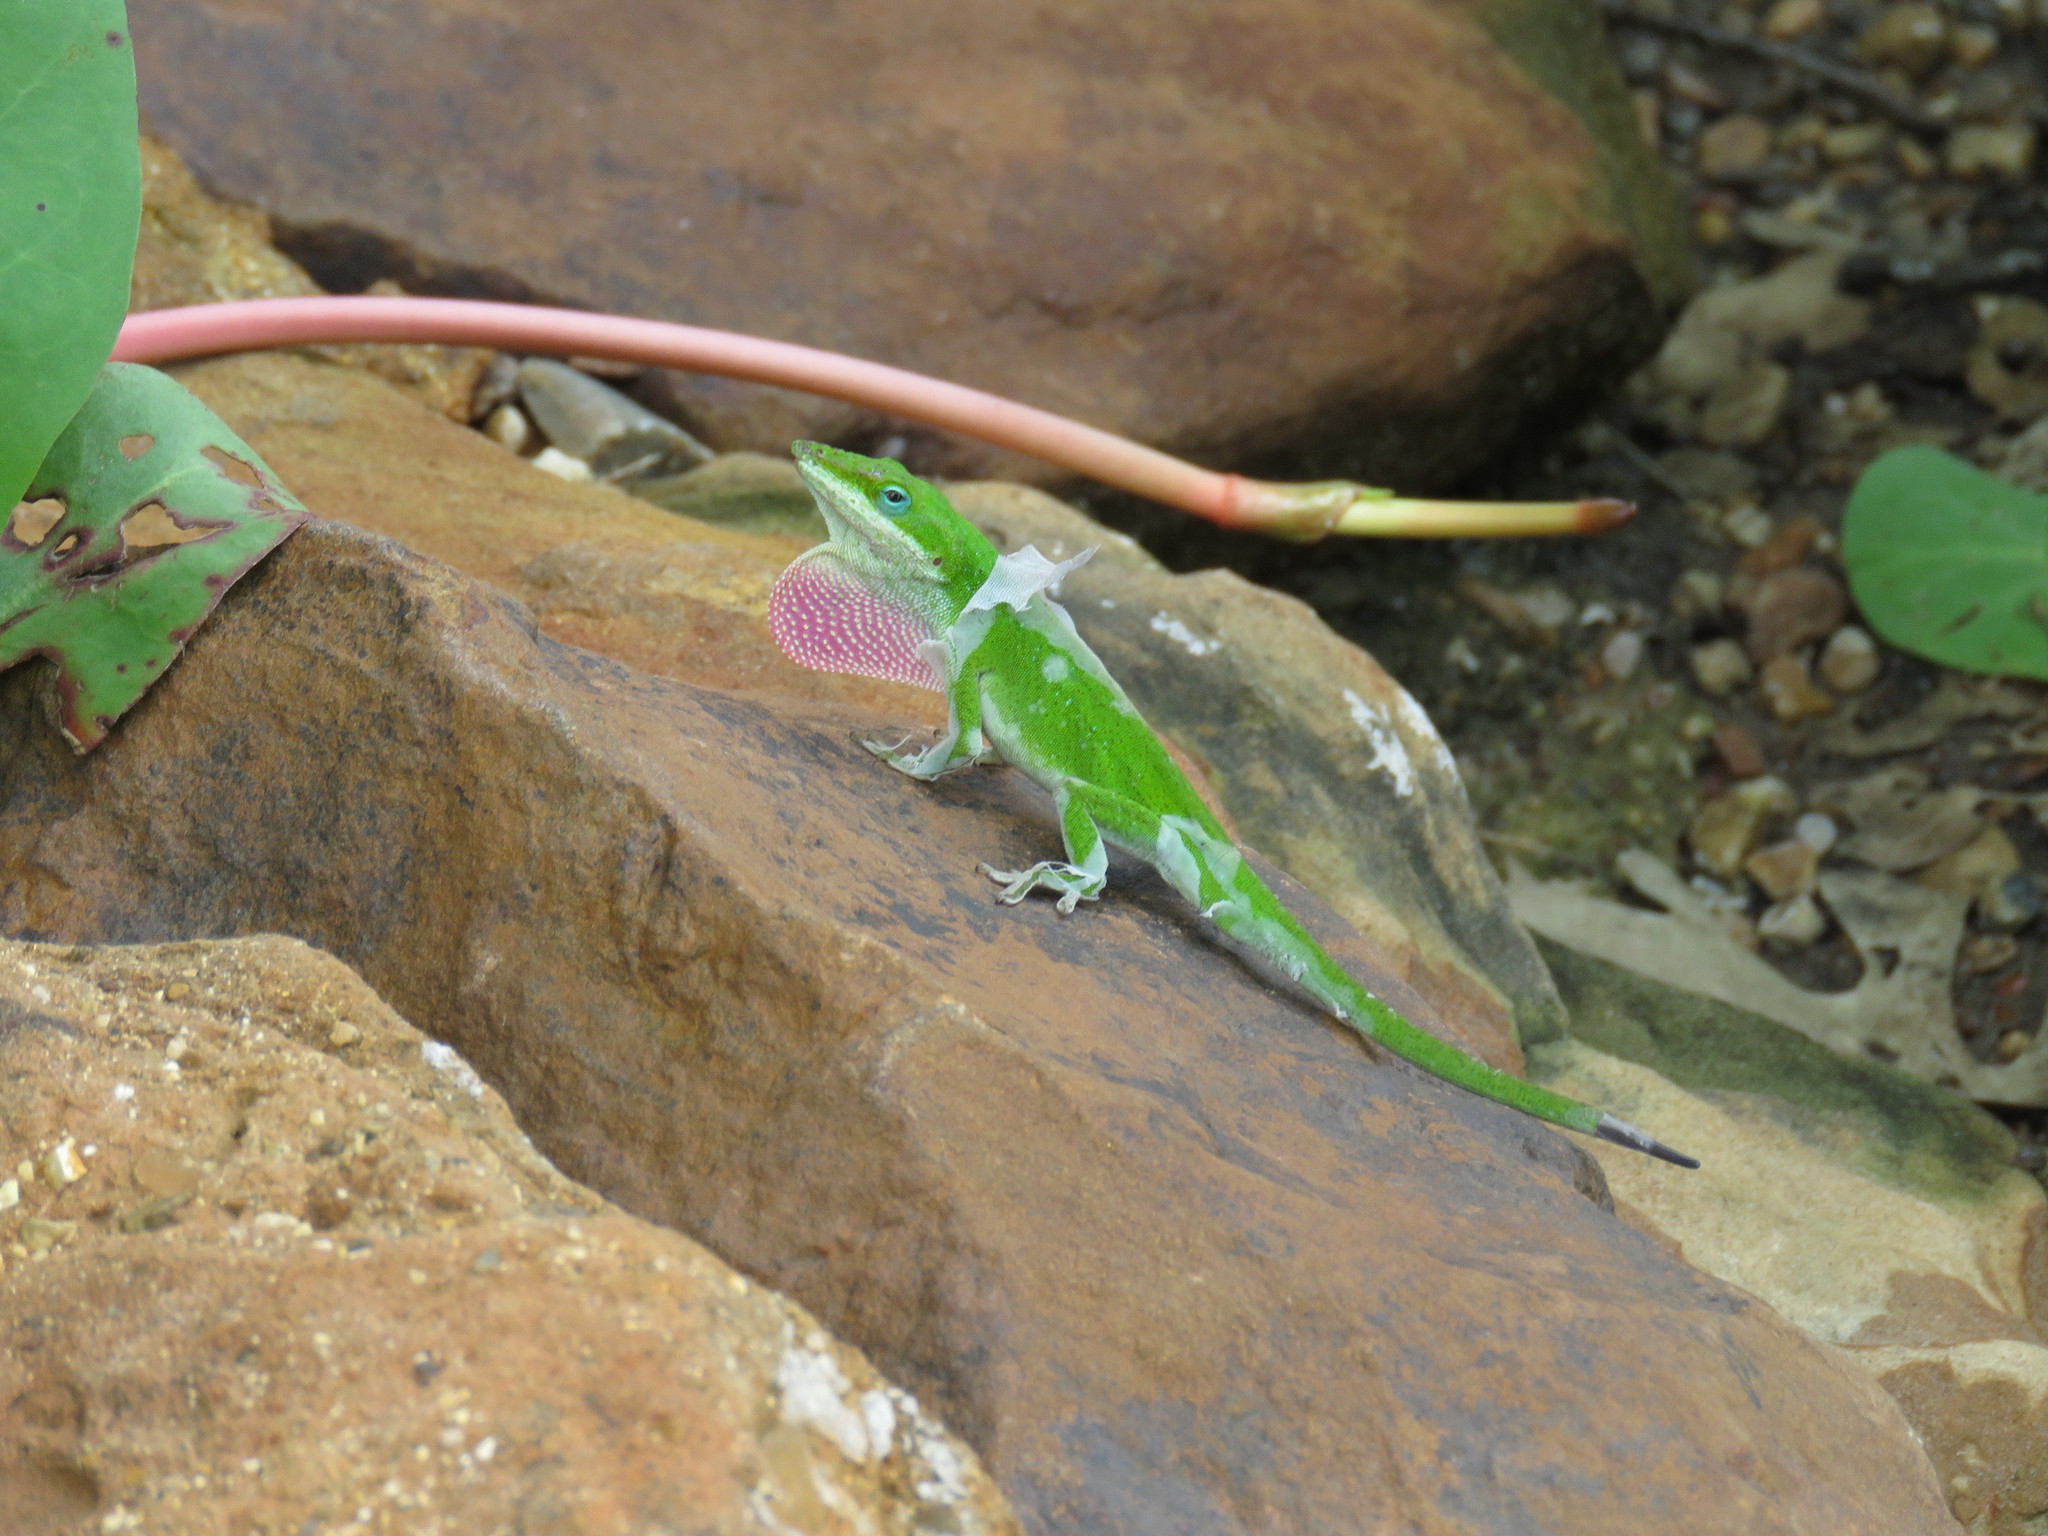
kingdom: Animalia
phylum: Chordata
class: Squamata
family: Dactyloidae
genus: Anolis
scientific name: Anolis carolinensis
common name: Green anole
